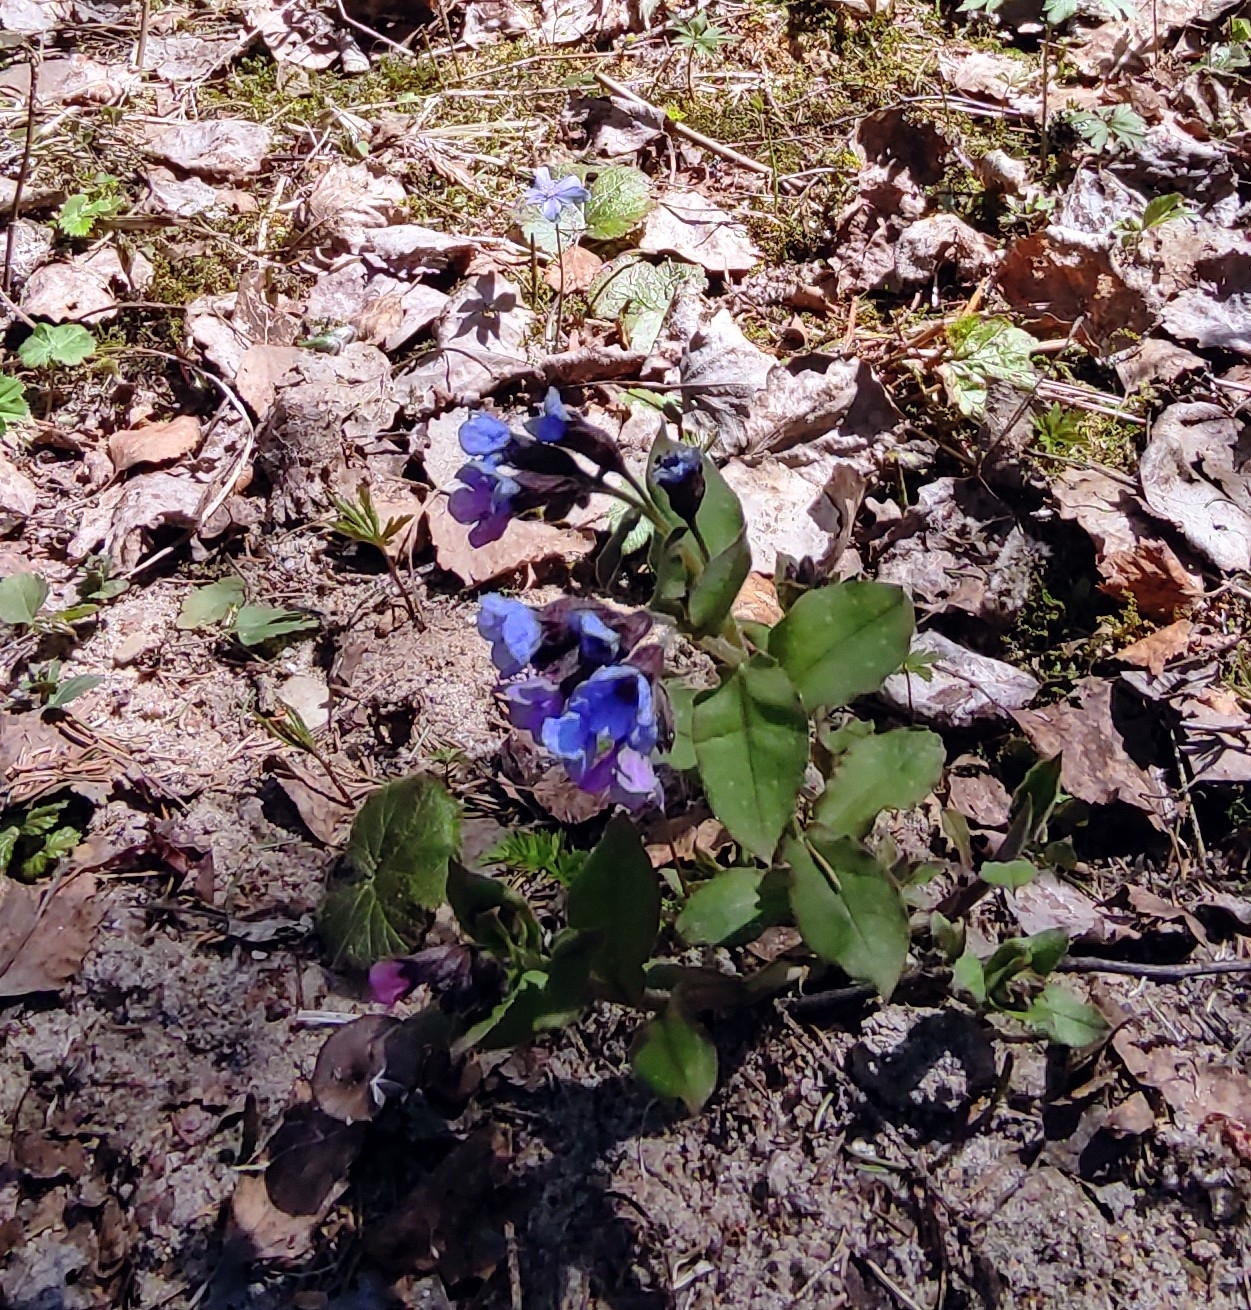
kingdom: Plantae
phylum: Tracheophyta
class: Magnoliopsida
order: Boraginales
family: Boraginaceae
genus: Pulmonaria
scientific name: Pulmonaria obscura
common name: Suffolk lungwort
